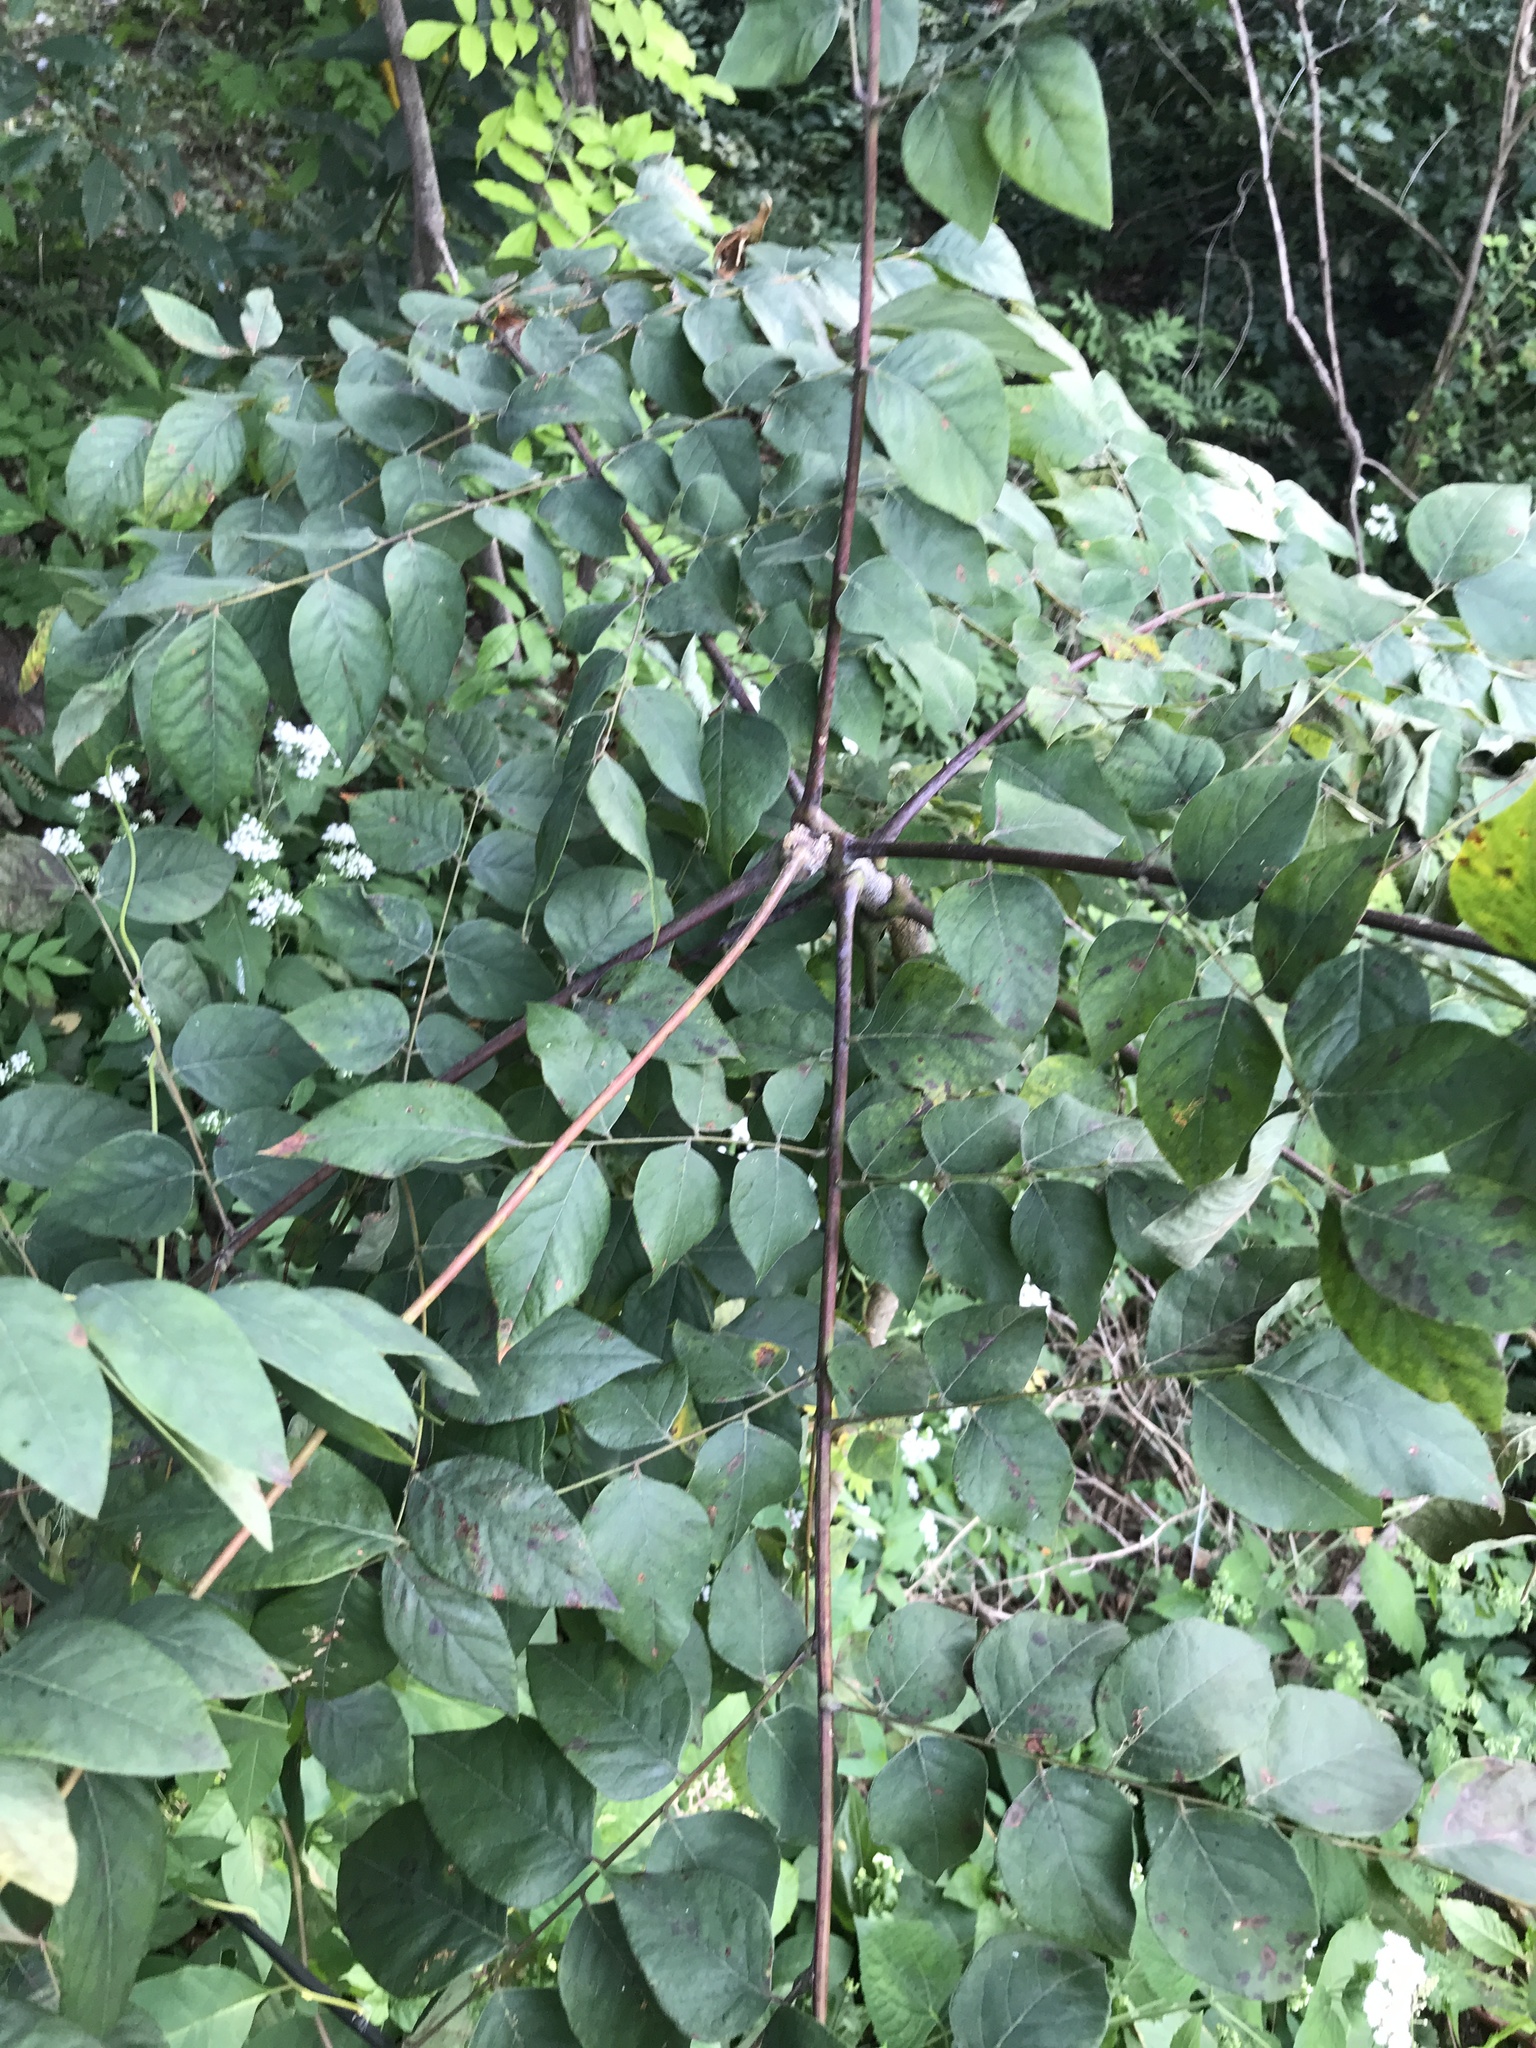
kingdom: Plantae
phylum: Tracheophyta
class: Magnoliopsida
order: Fabales
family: Fabaceae
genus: Gymnocladus
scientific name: Gymnocladus dioicus
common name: Kentucky coffee-tree
